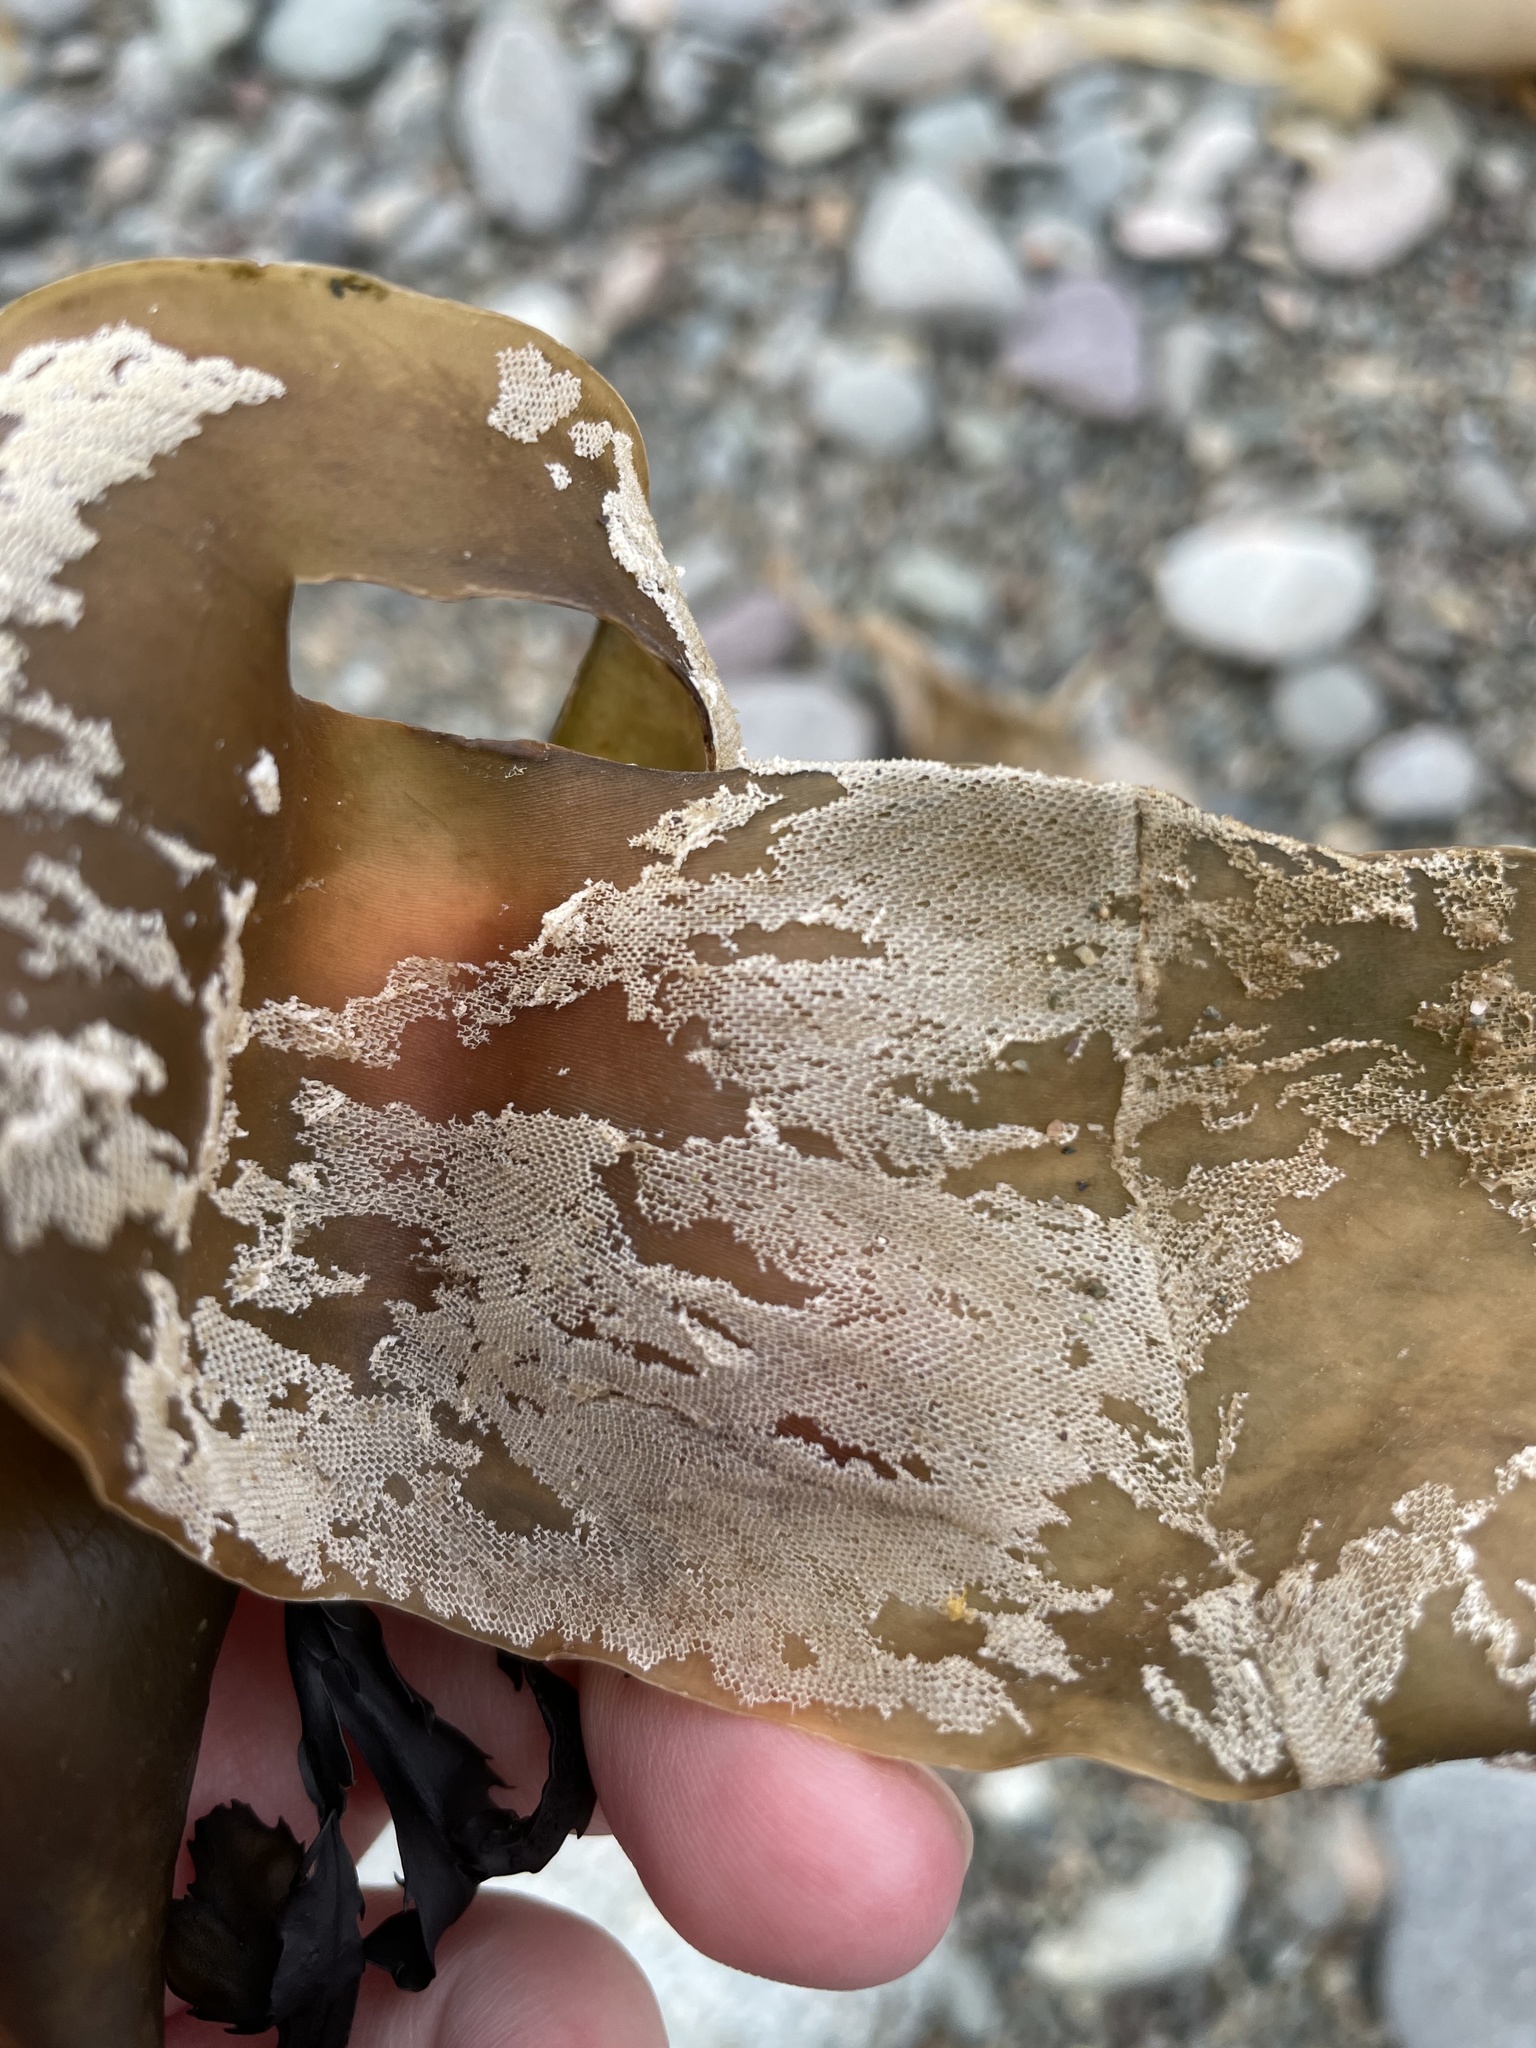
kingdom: Animalia
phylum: Bryozoa
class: Gymnolaemata
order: Cheilostomatida
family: Membraniporidae
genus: Membranipora
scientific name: Membranipora membranacea
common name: Sea mat
